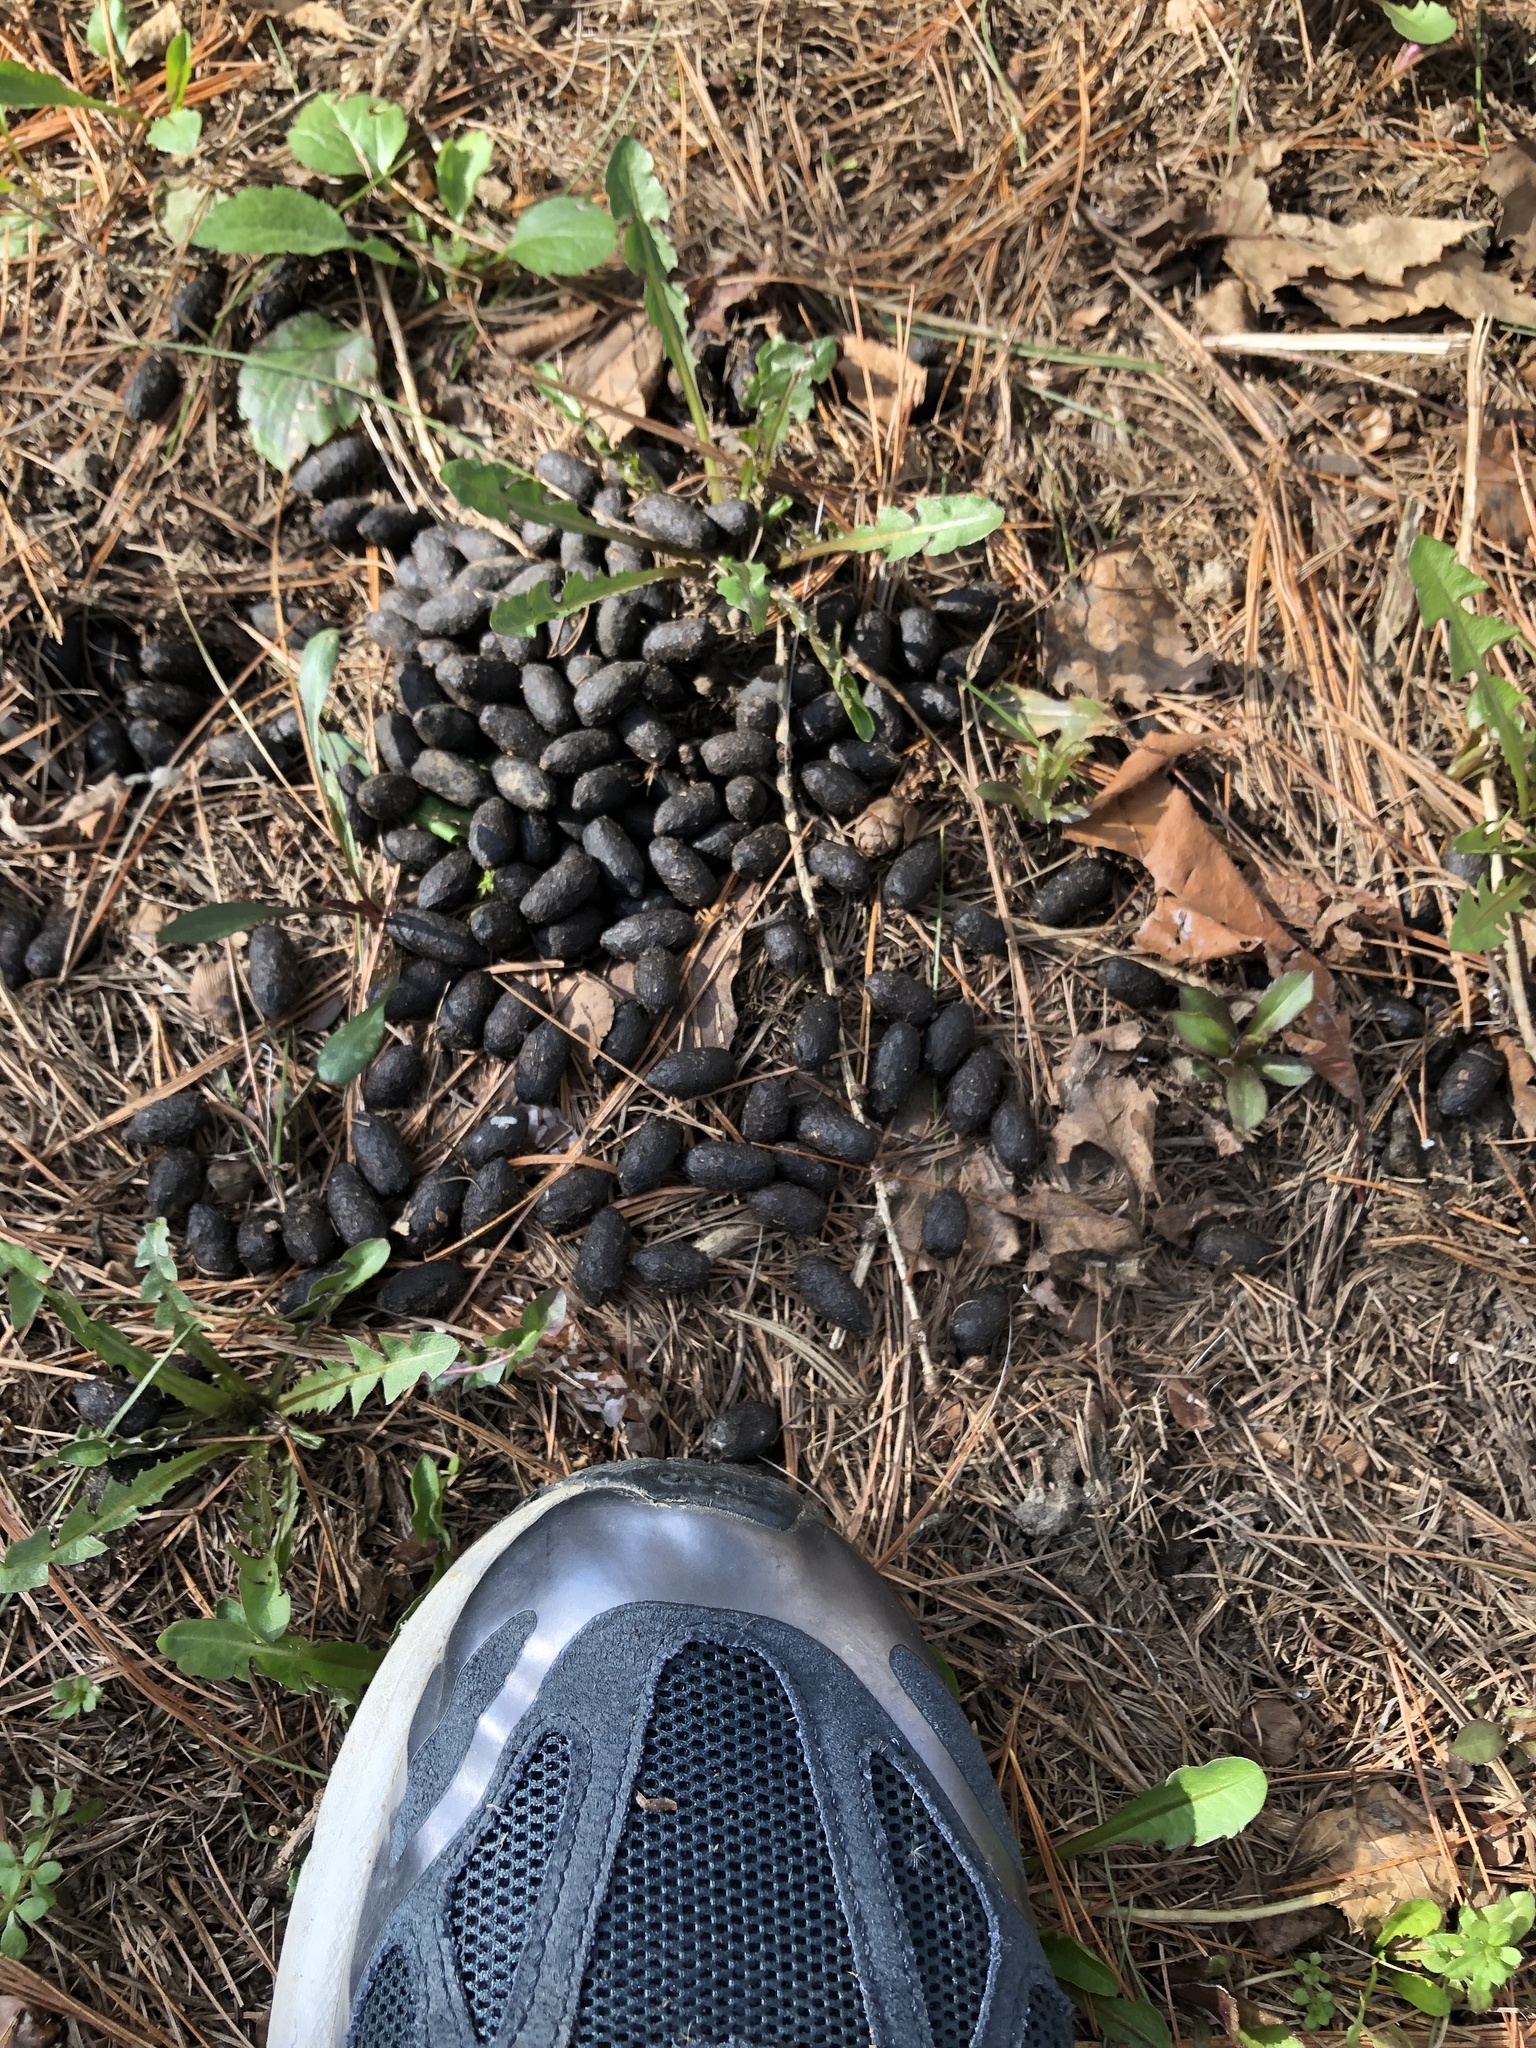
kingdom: Animalia
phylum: Chordata
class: Mammalia
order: Artiodactyla
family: Cervidae
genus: Odocoileus
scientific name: Odocoileus virginianus
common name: White-tailed deer
